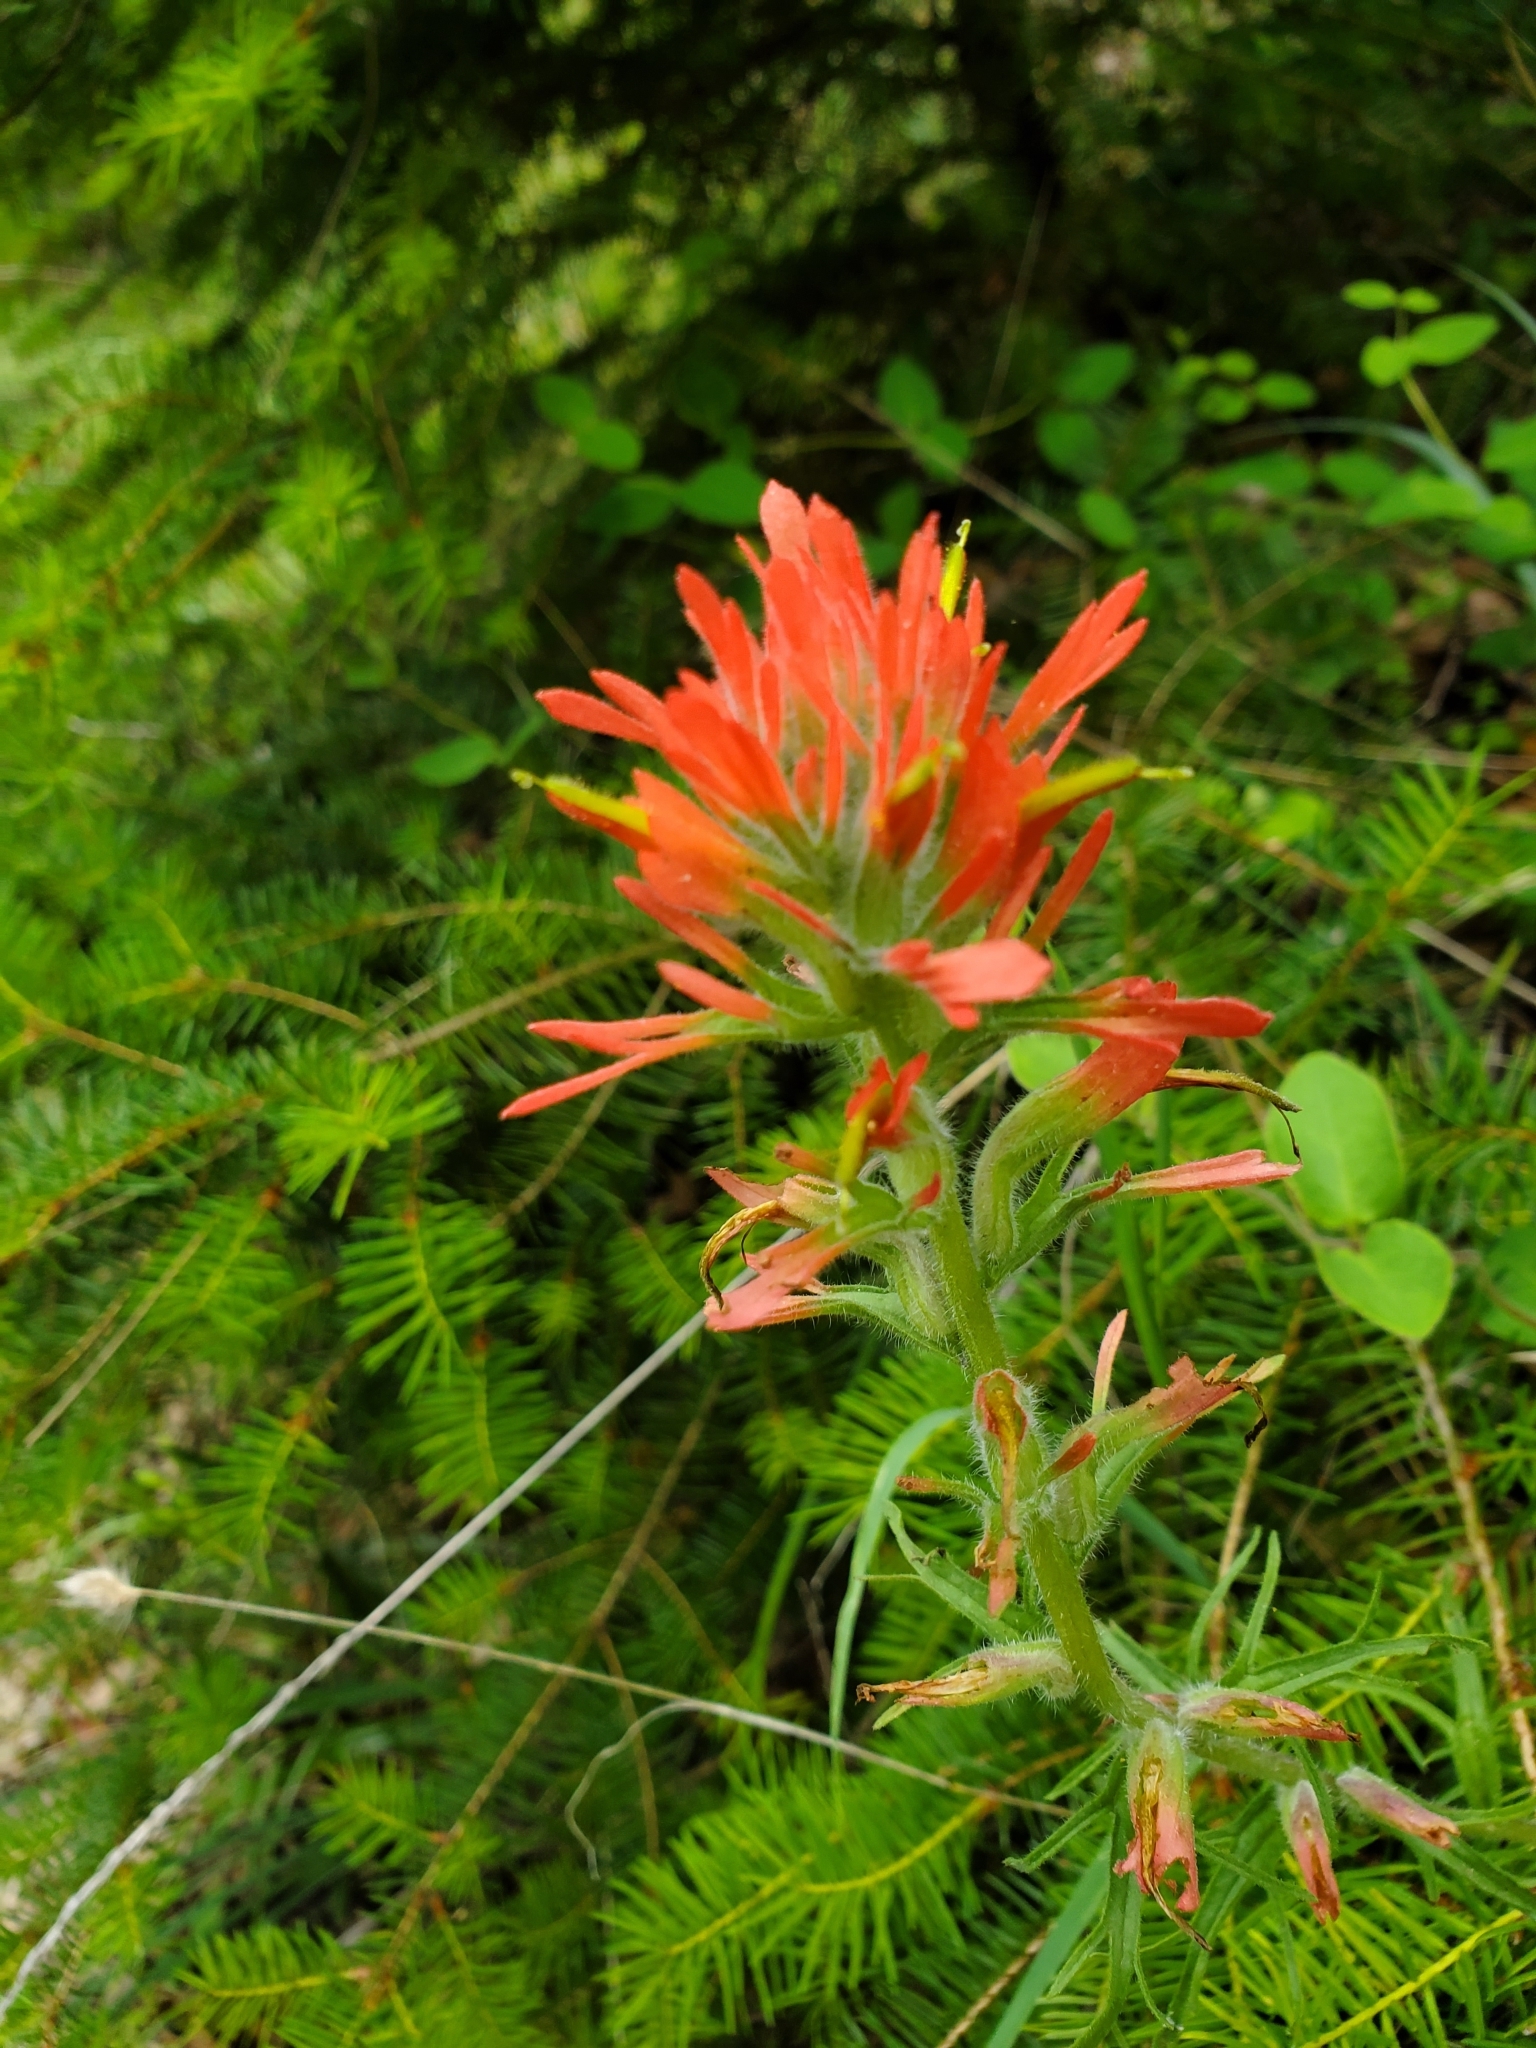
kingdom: Plantae
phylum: Tracheophyta
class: Magnoliopsida
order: Lamiales
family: Orobanchaceae
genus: Castilleja
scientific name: Castilleja affinis
